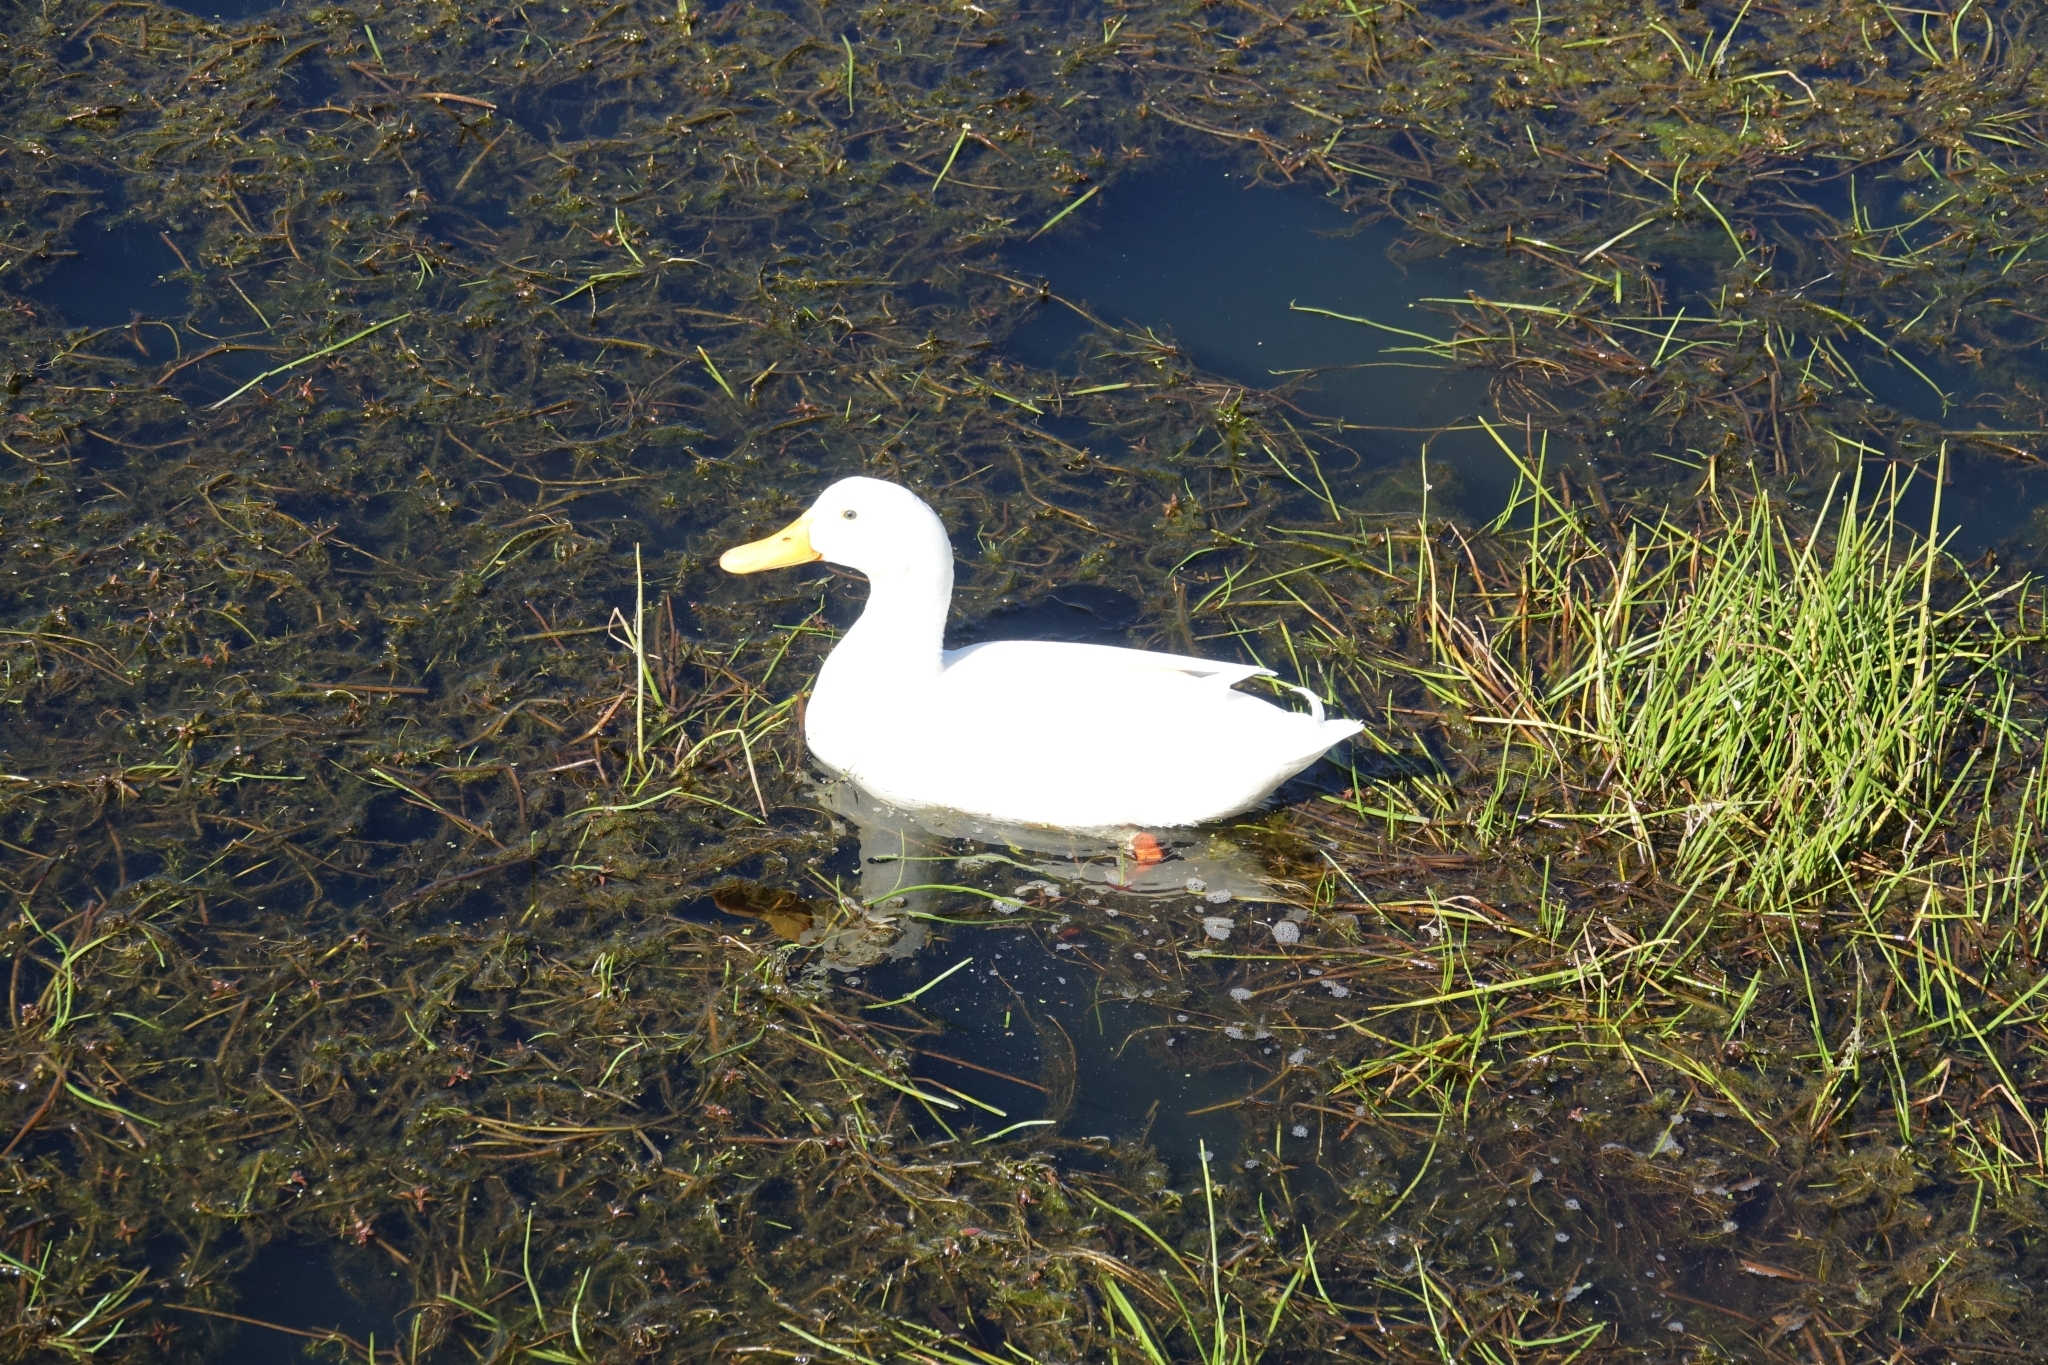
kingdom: Animalia
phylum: Chordata
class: Aves
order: Anseriformes
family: Anatidae
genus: Anas
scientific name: Anas platyrhynchos
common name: Mallard
